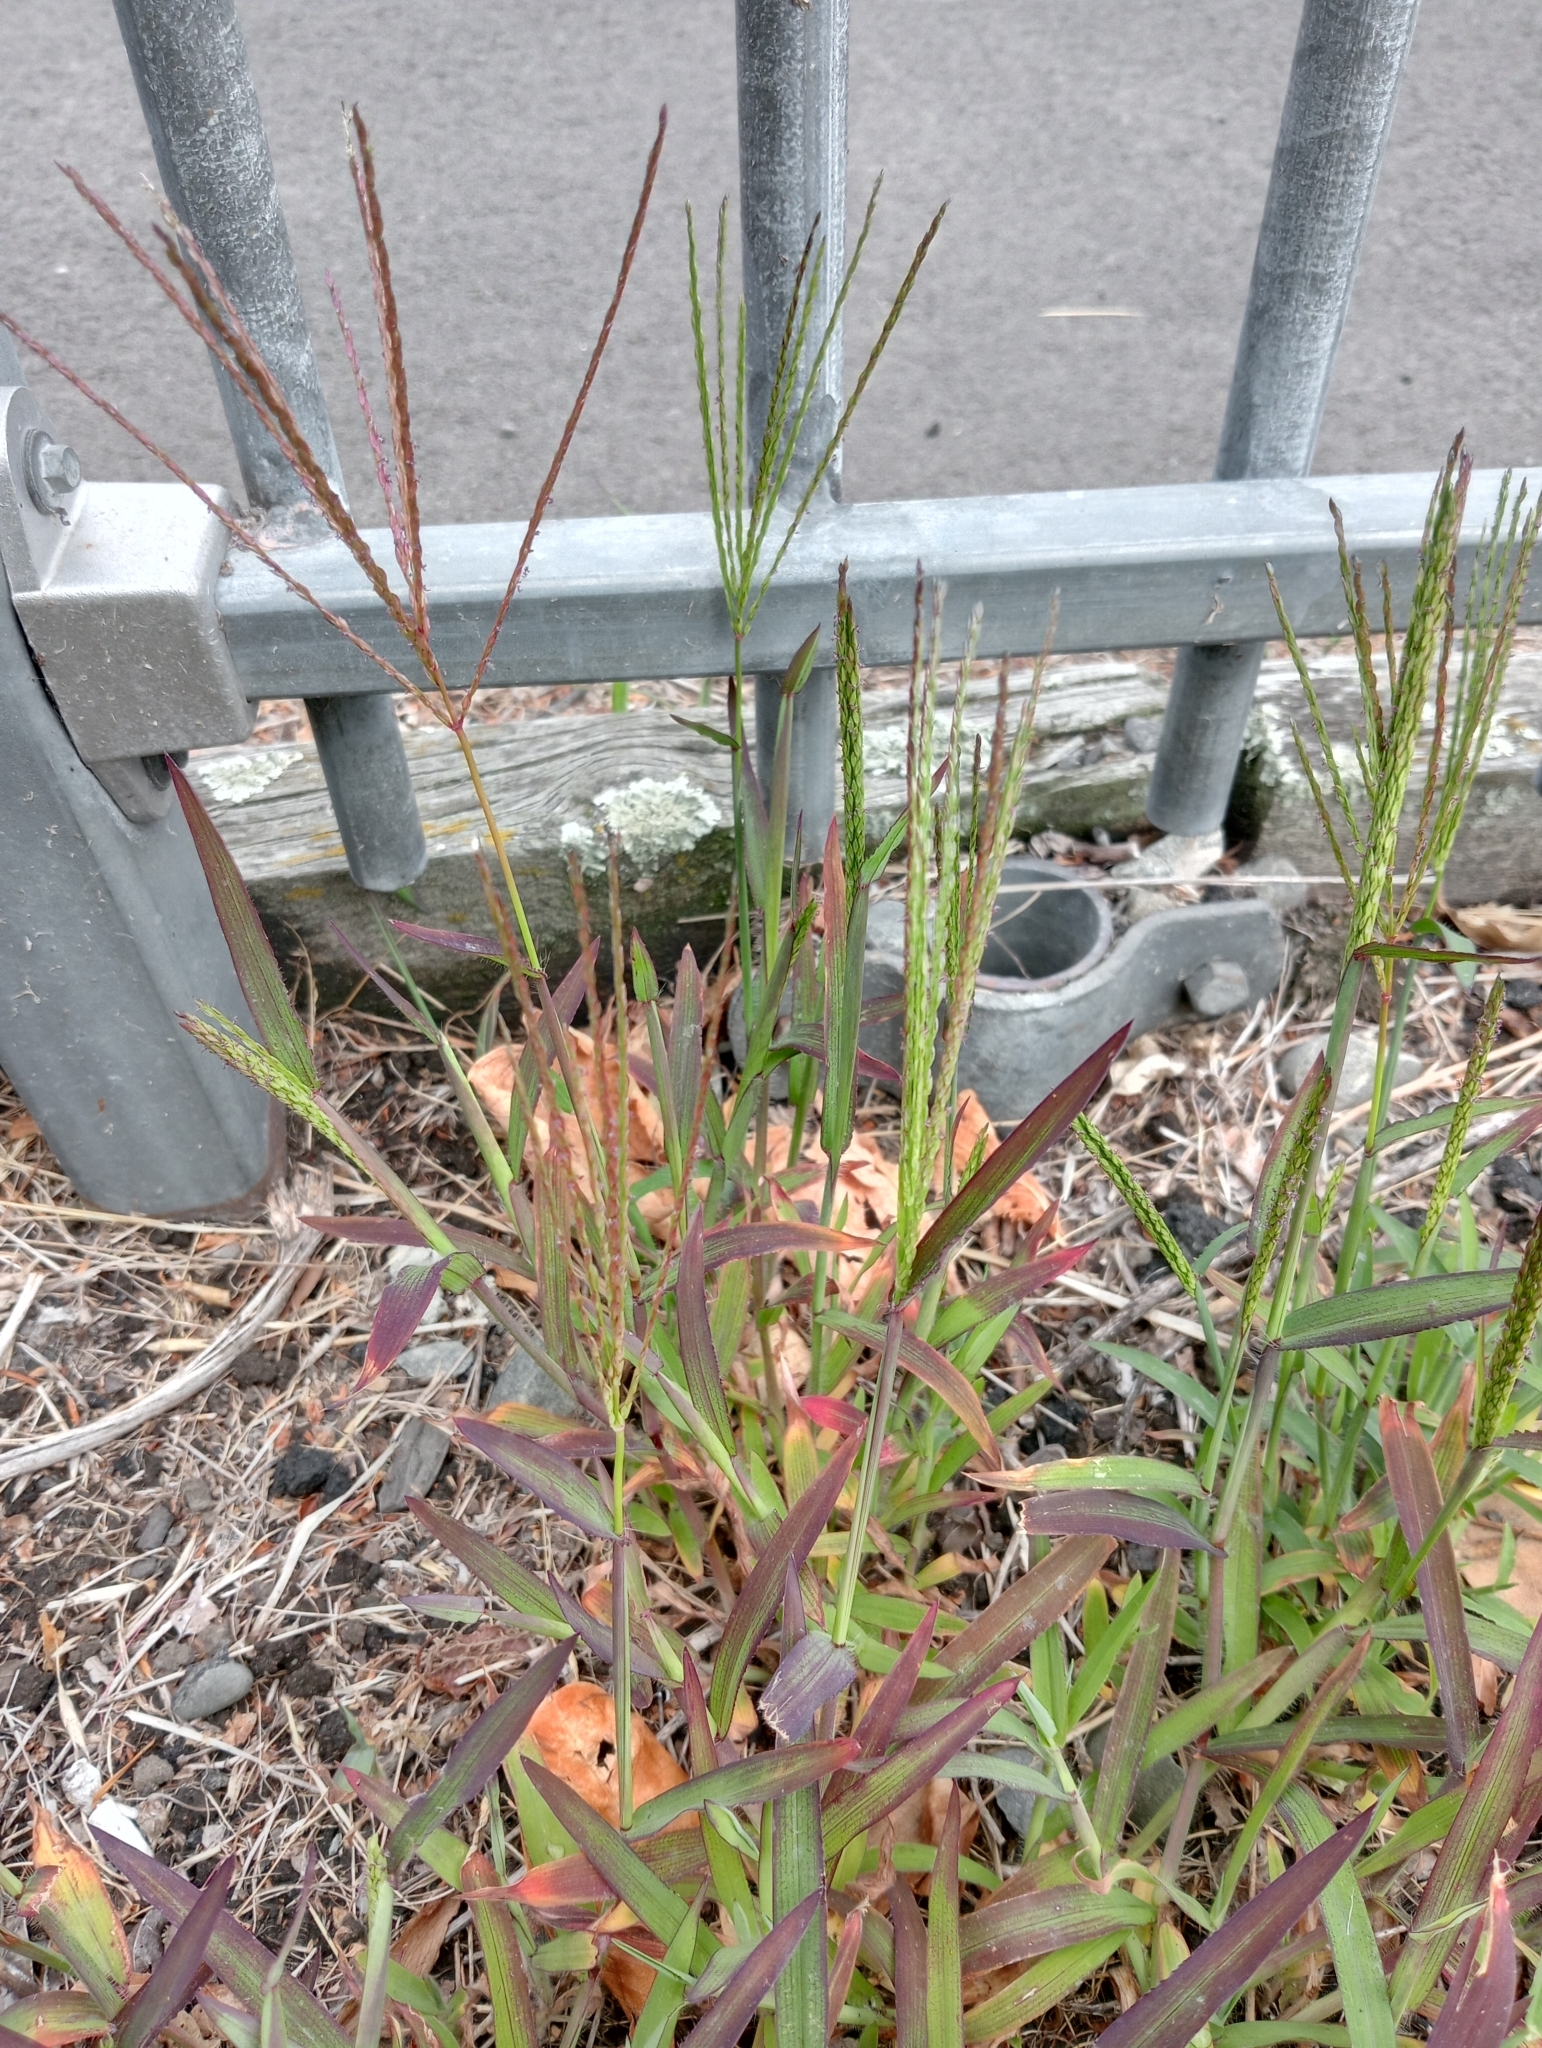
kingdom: Plantae
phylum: Tracheophyta
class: Liliopsida
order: Poales
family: Poaceae
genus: Digitaria
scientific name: Digitaria sanguinalis
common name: Hairy crabgrass
